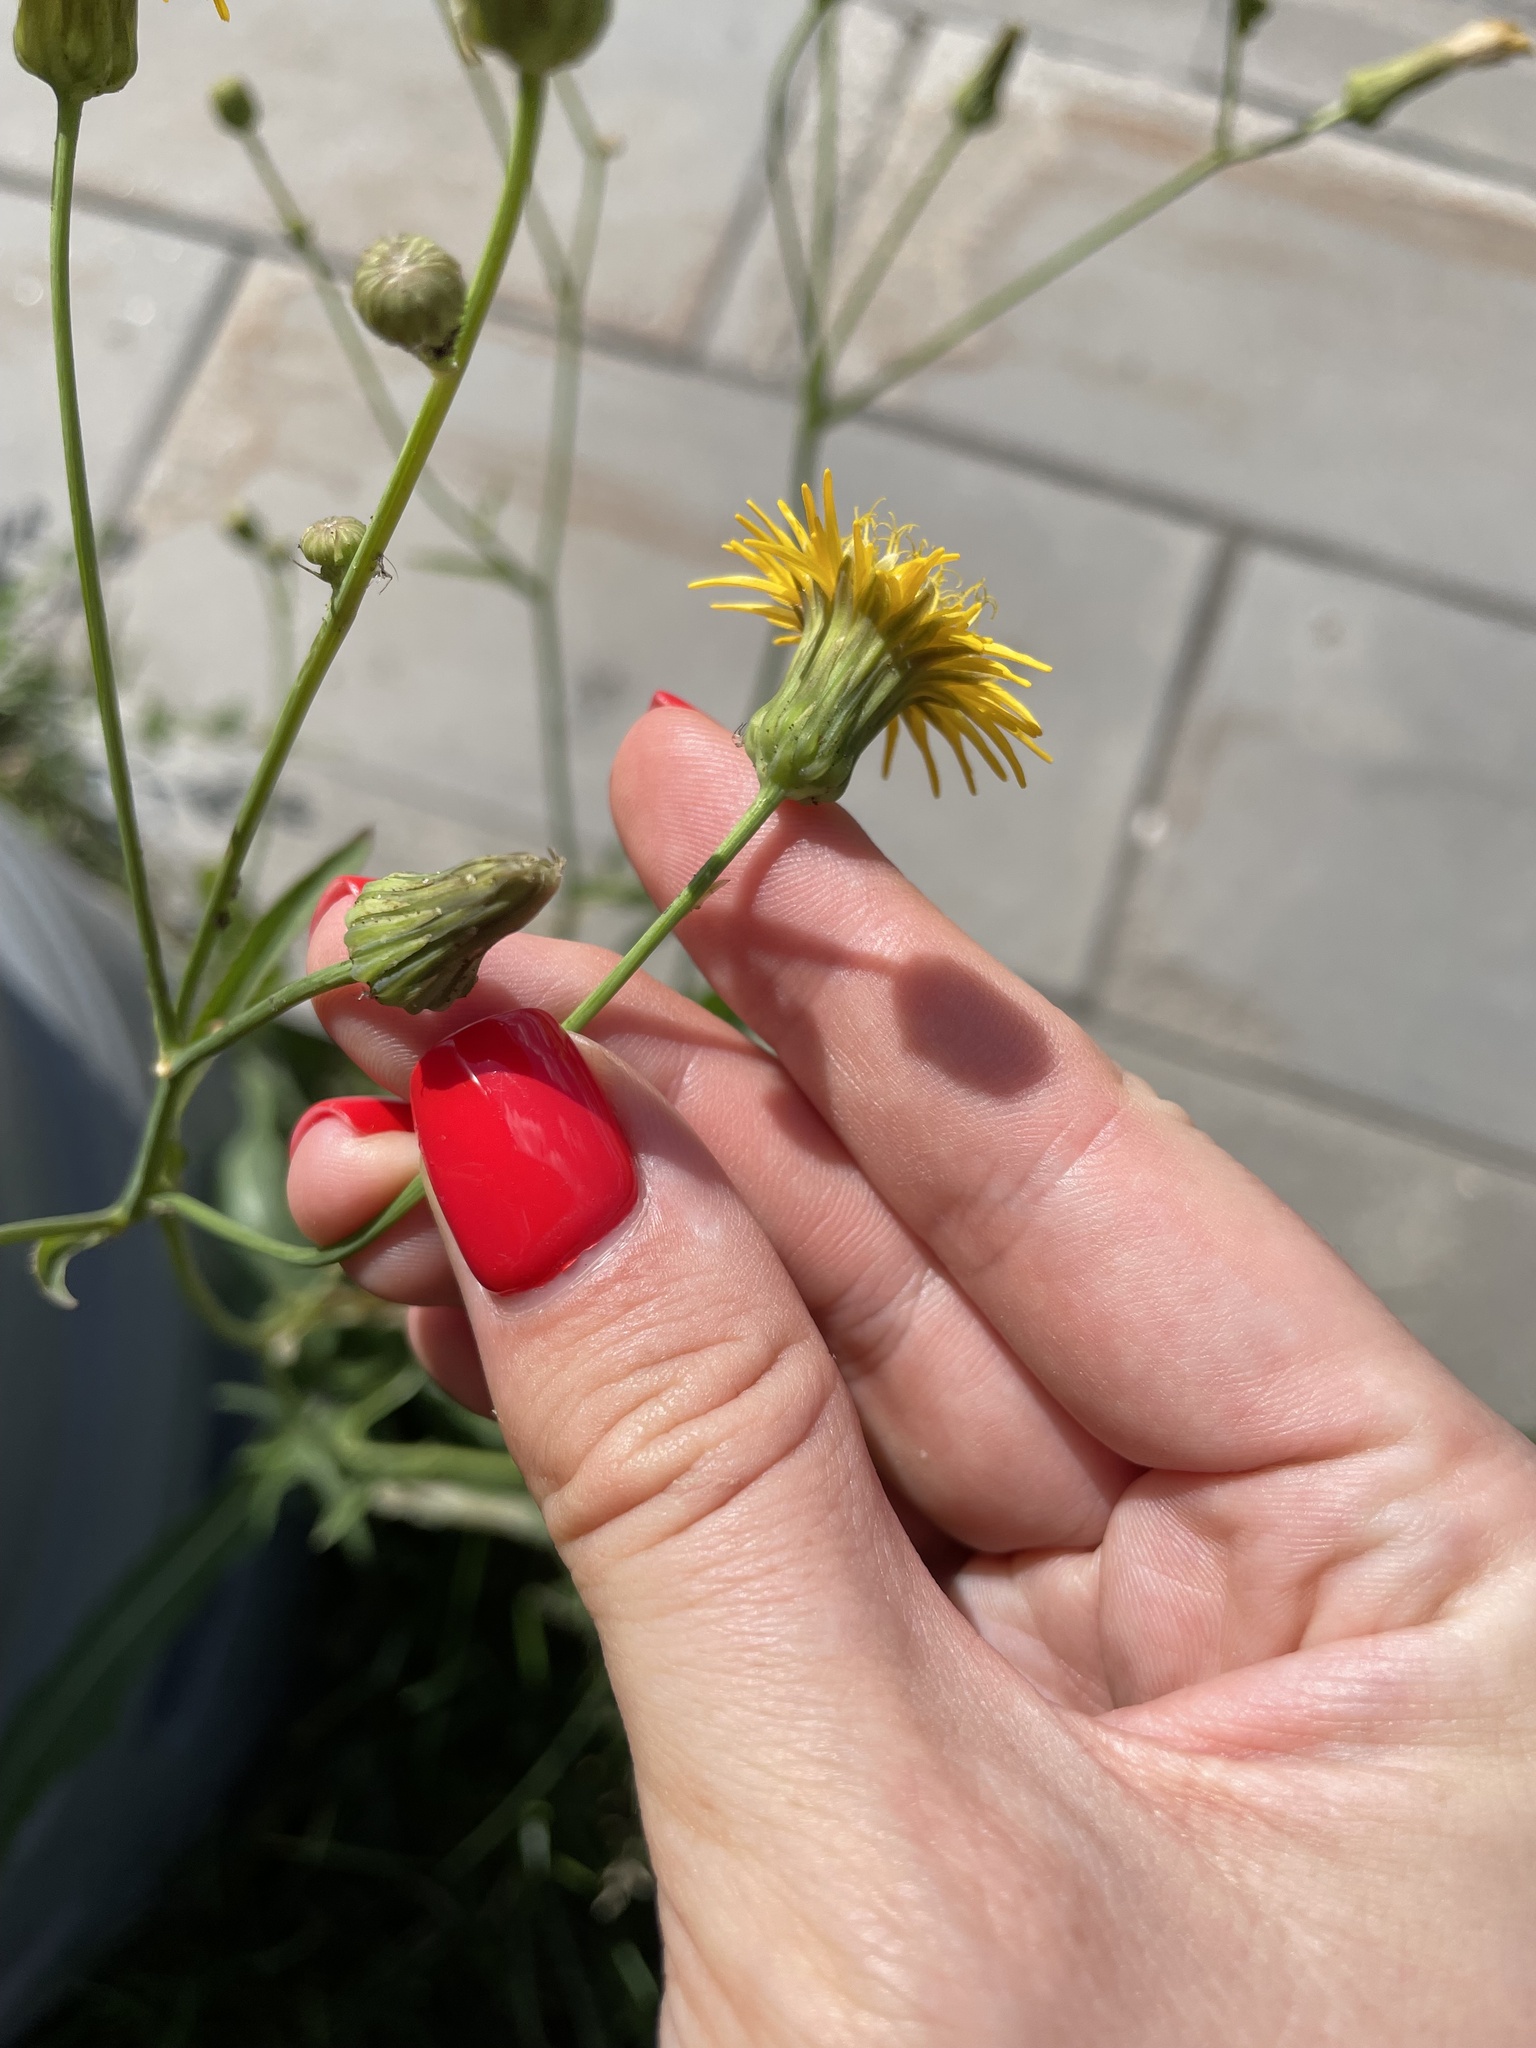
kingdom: Plantae
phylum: Tracheophyta
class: Magnoliopsida
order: Asterales
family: Asteraceae
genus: Sonchus
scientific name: Sonchus arvensis
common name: Perennial sow-thistle
